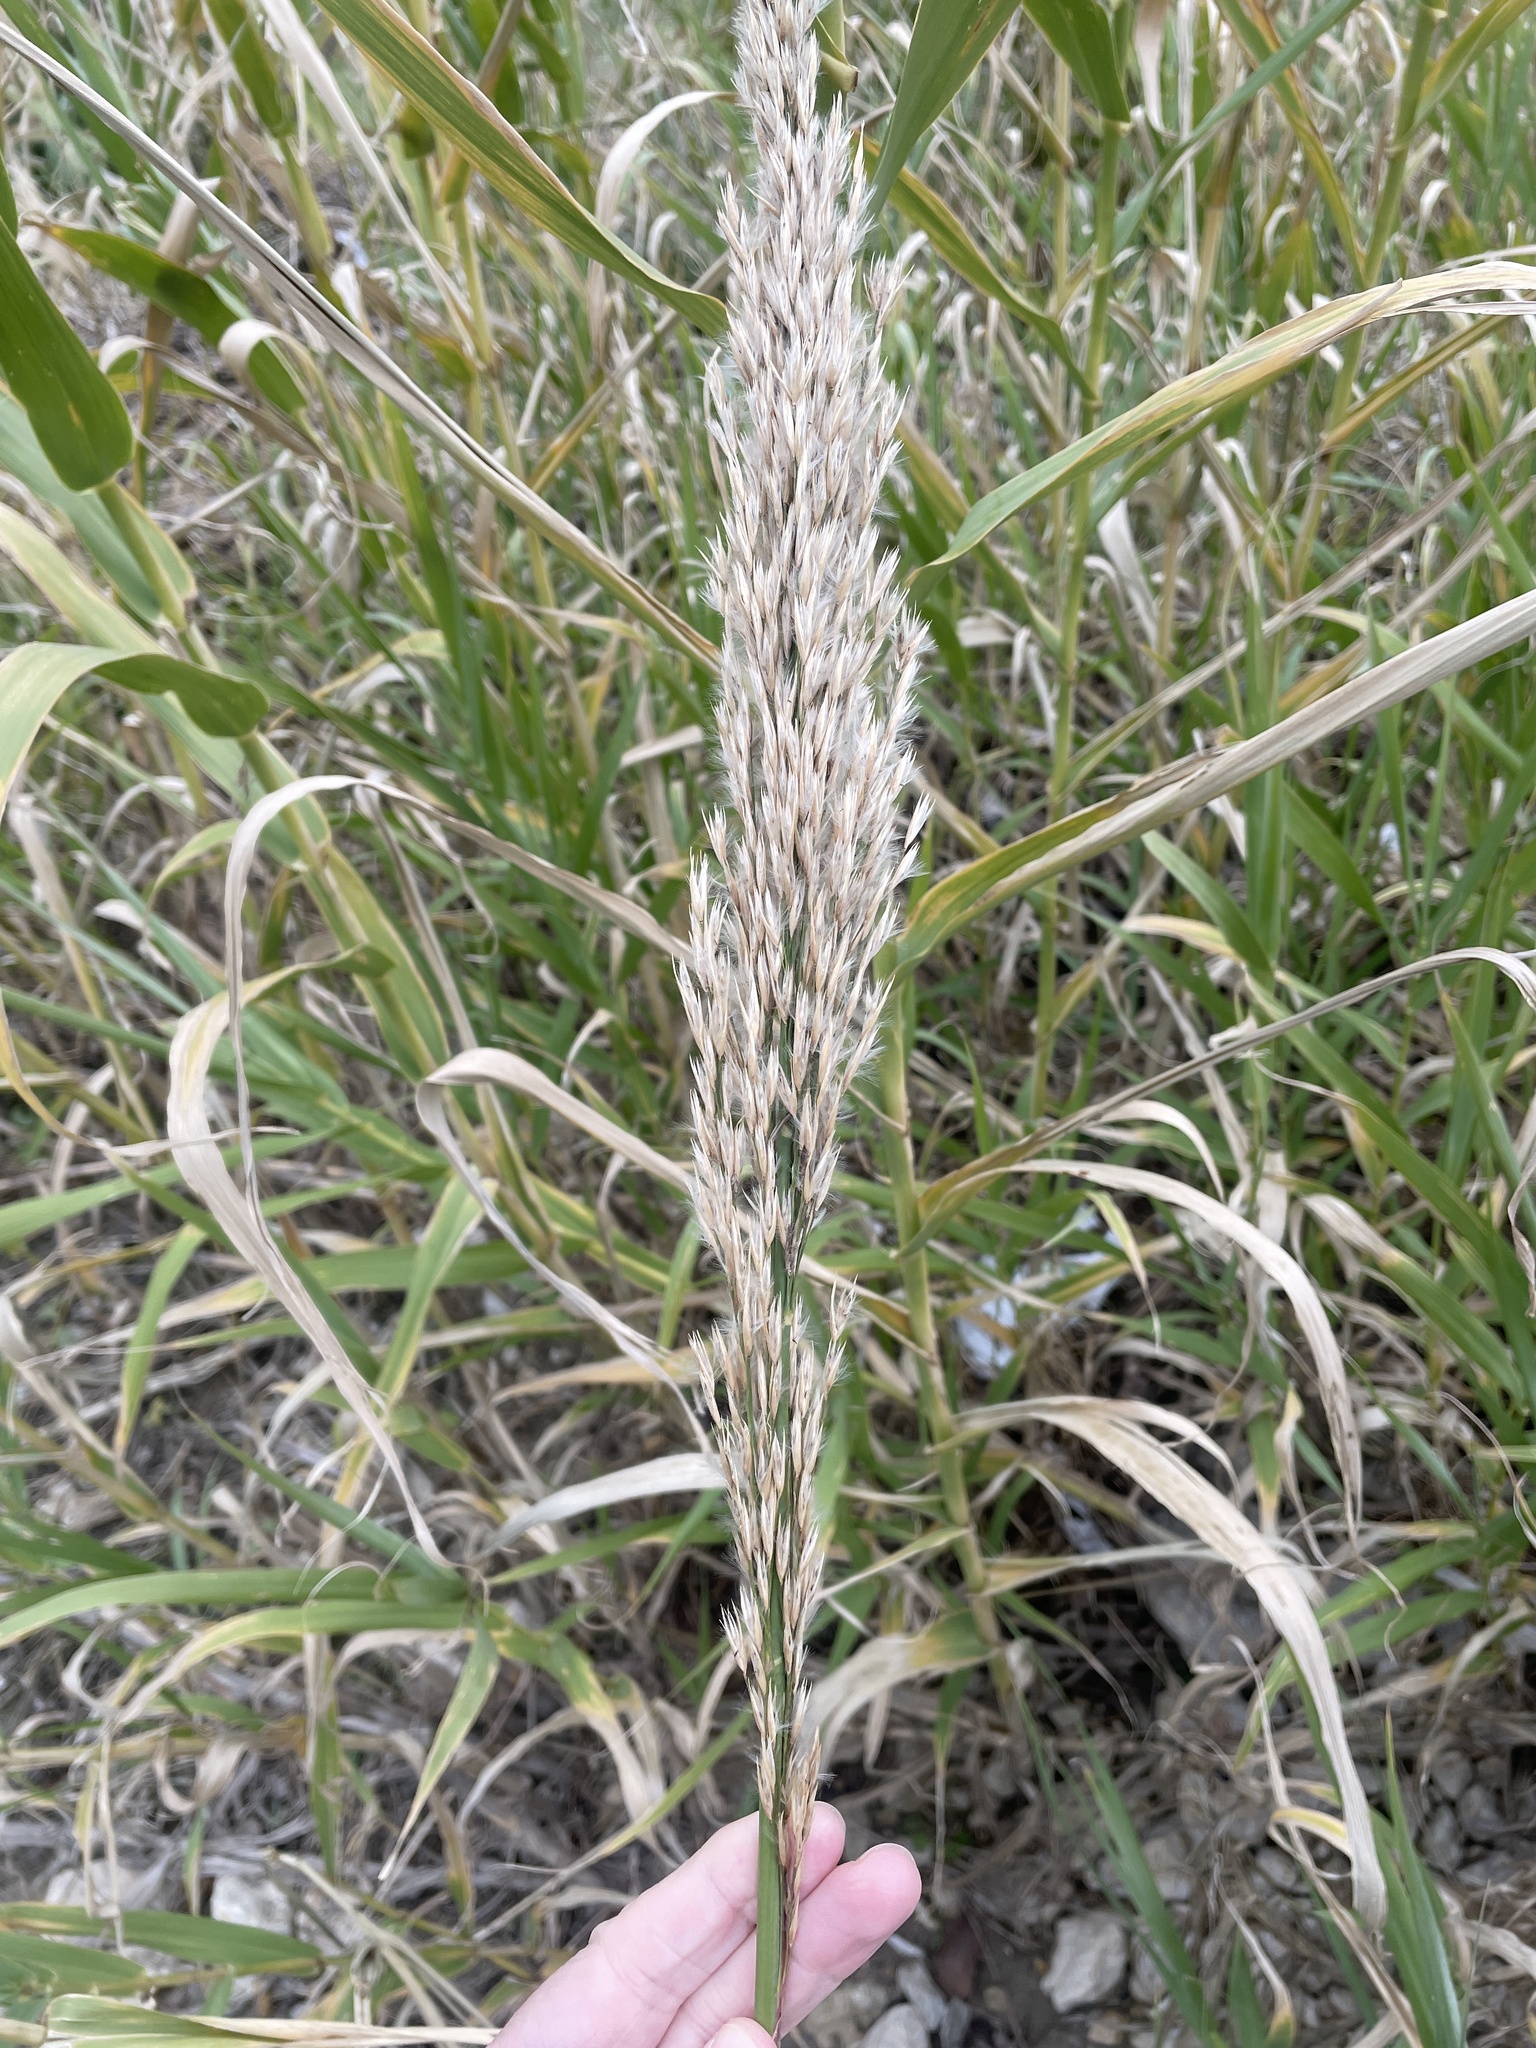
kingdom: Plantae
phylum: Tracheophyta
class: Liliopsida
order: Poales
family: Poaceae
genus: Arundo
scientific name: Arundo donax
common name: Giant reed
